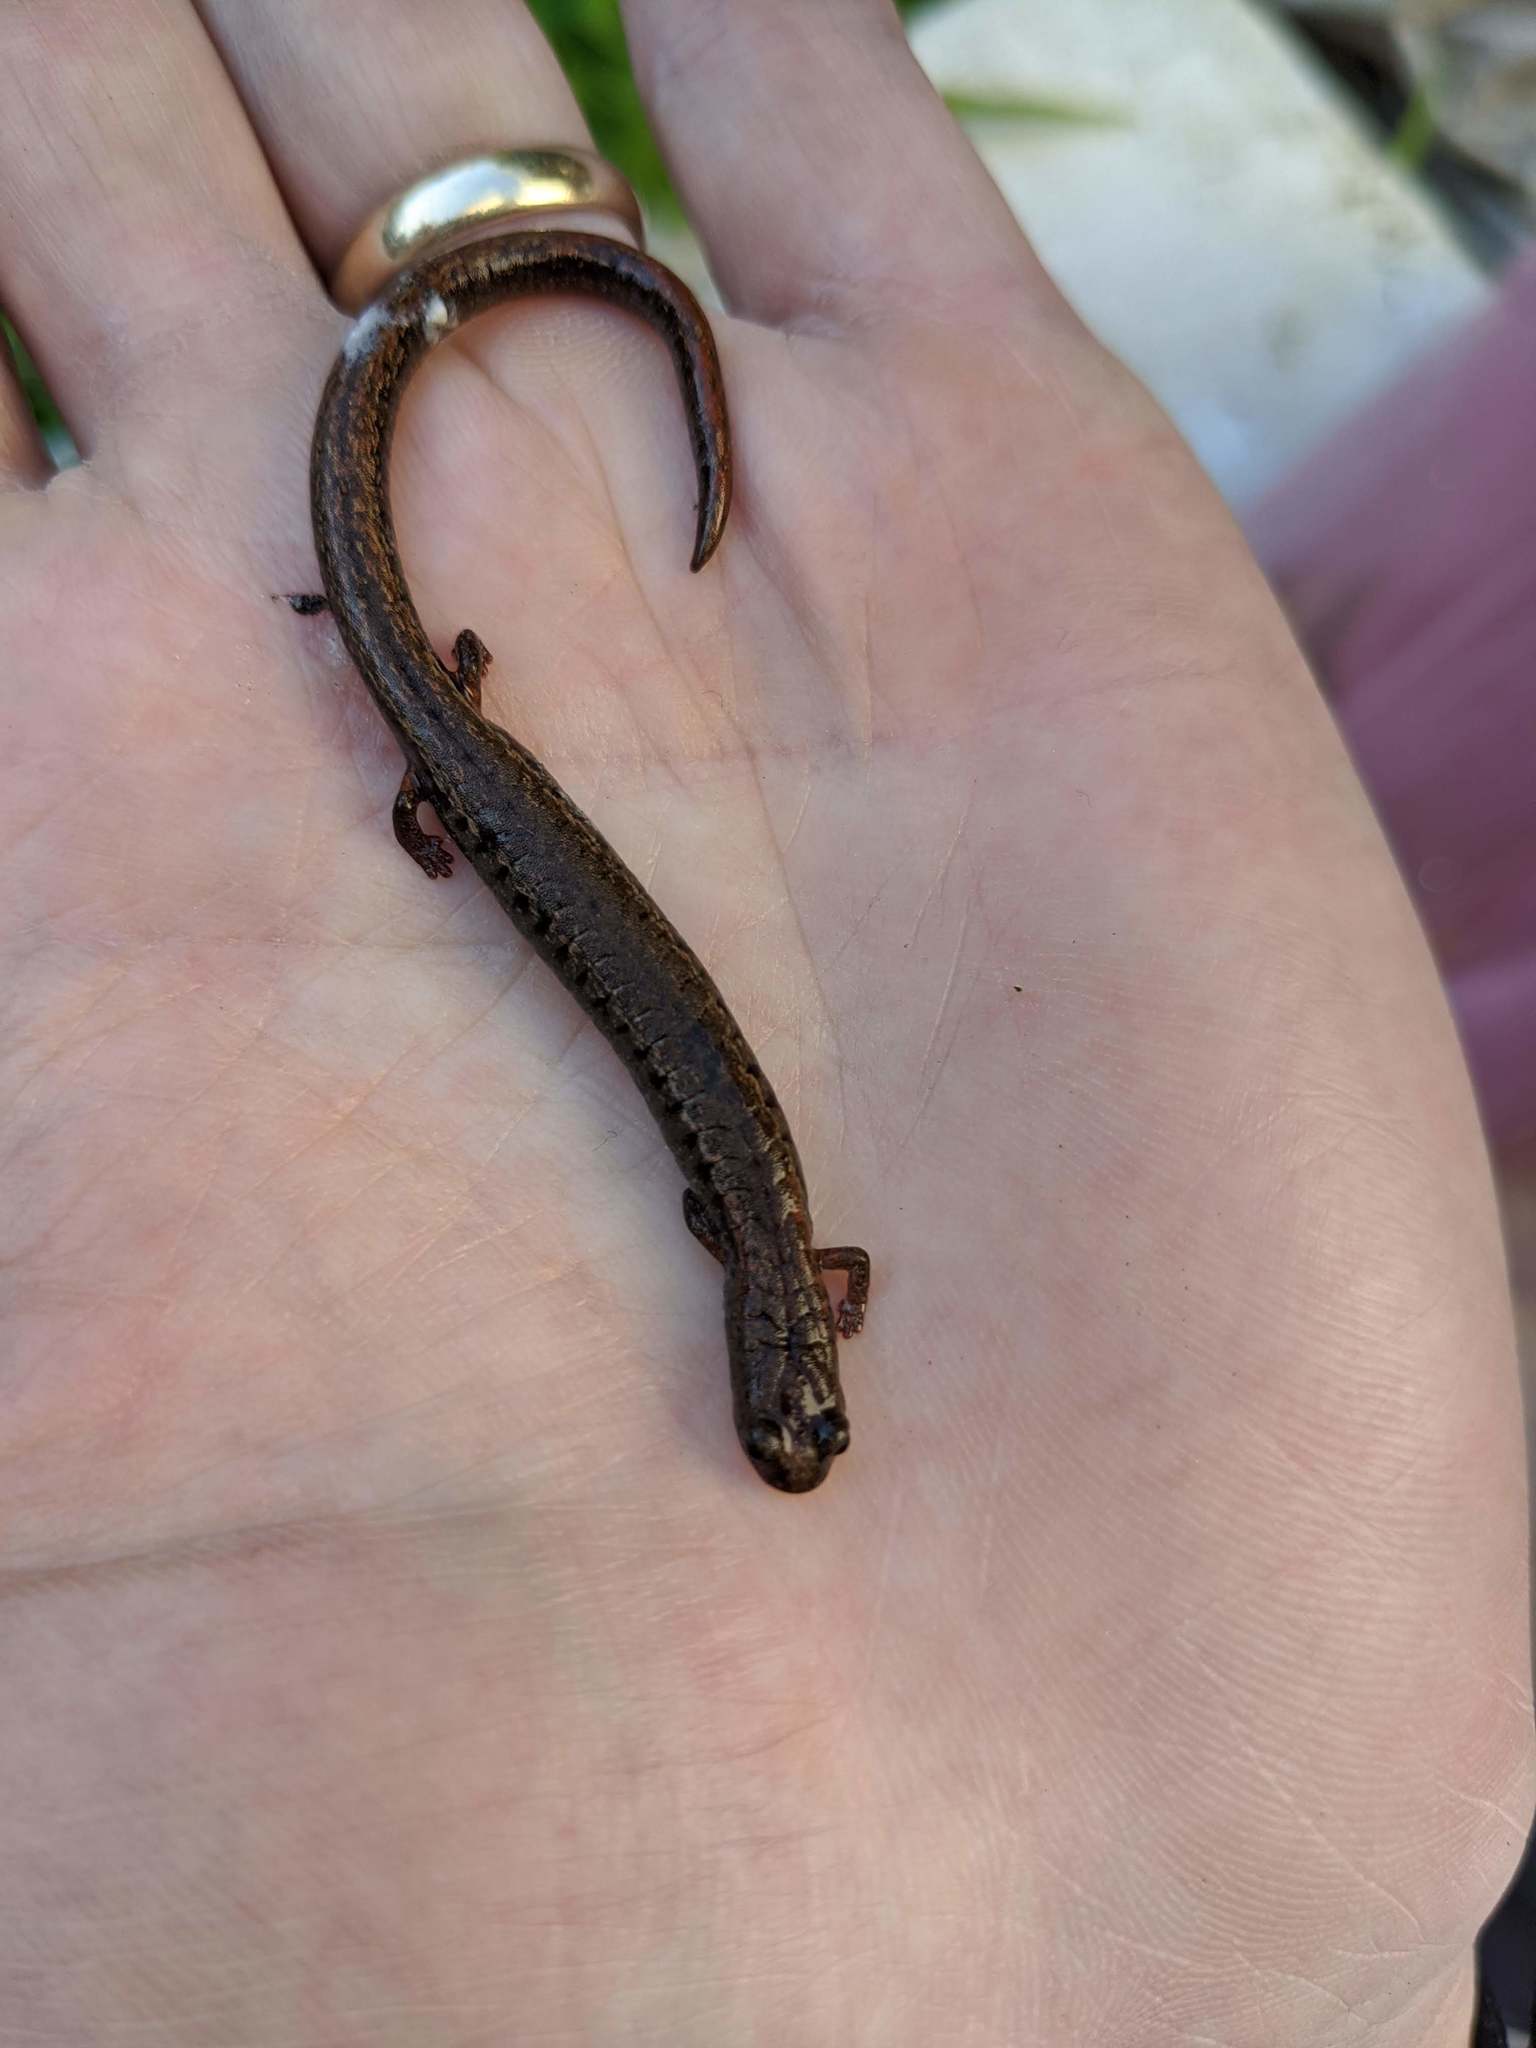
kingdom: Animalia
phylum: Chordata
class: Amphibia
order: Caudata
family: Plethodontidae
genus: Batrachoseps
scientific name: Batrachoseps attenuatus
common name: California slender salamander
